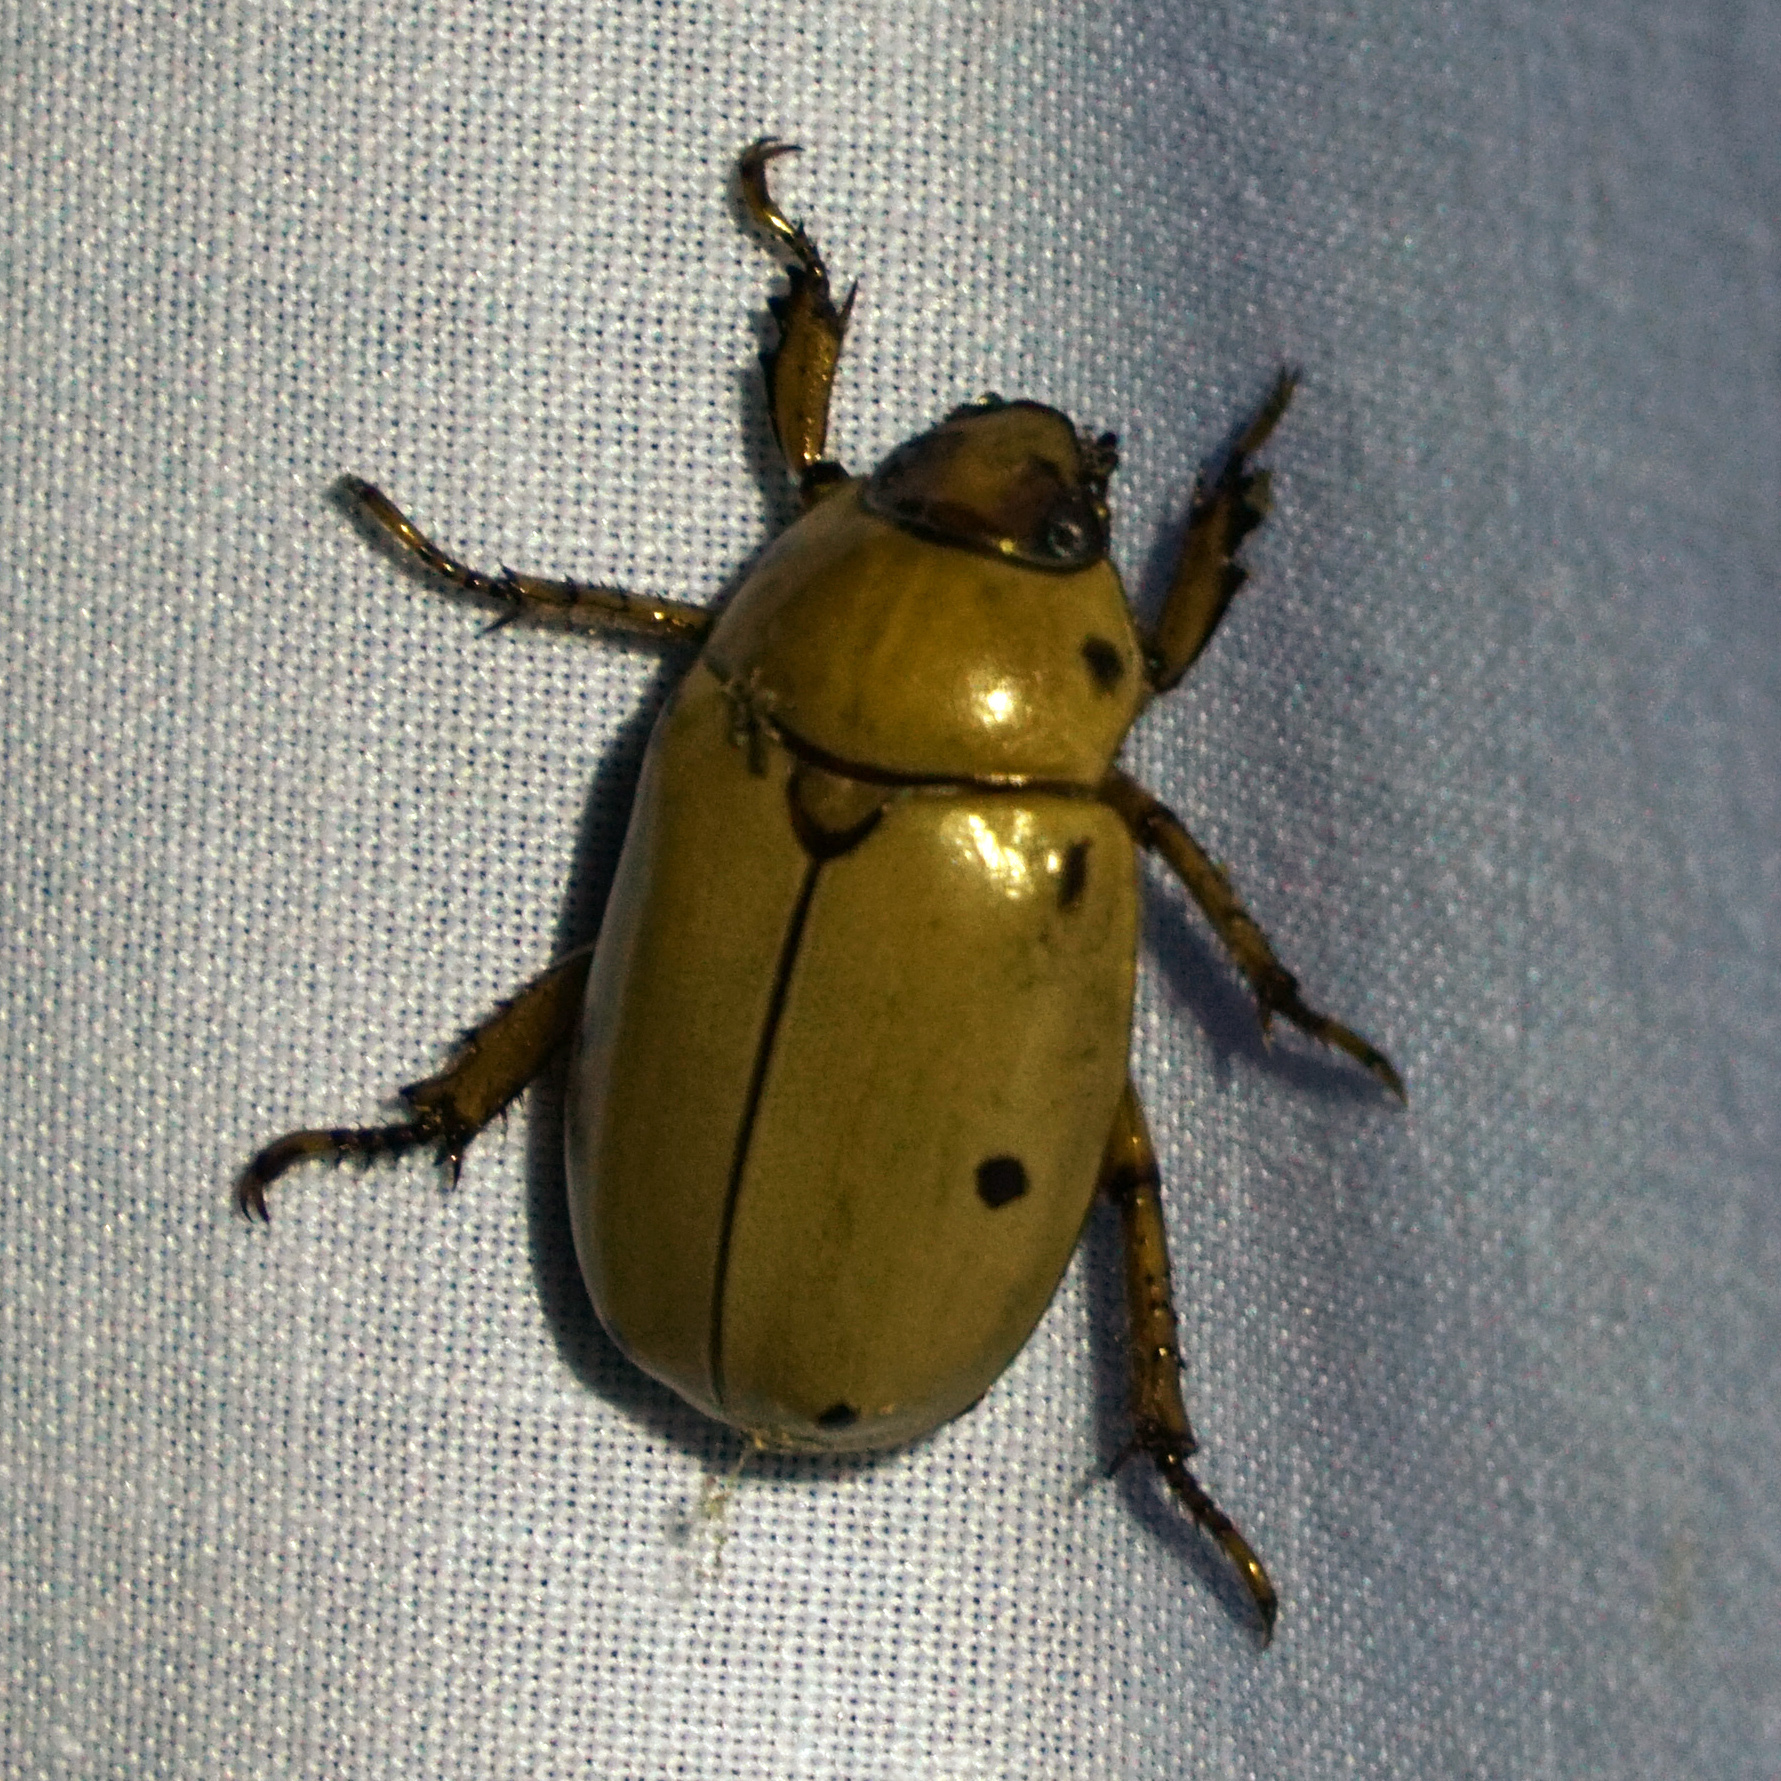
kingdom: Animalia
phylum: Arthropoda
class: Insecta
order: Coleoptera
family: Scarabaeidae
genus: Pelidnota
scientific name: Pelidnota punctata
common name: Grapevine beetle
